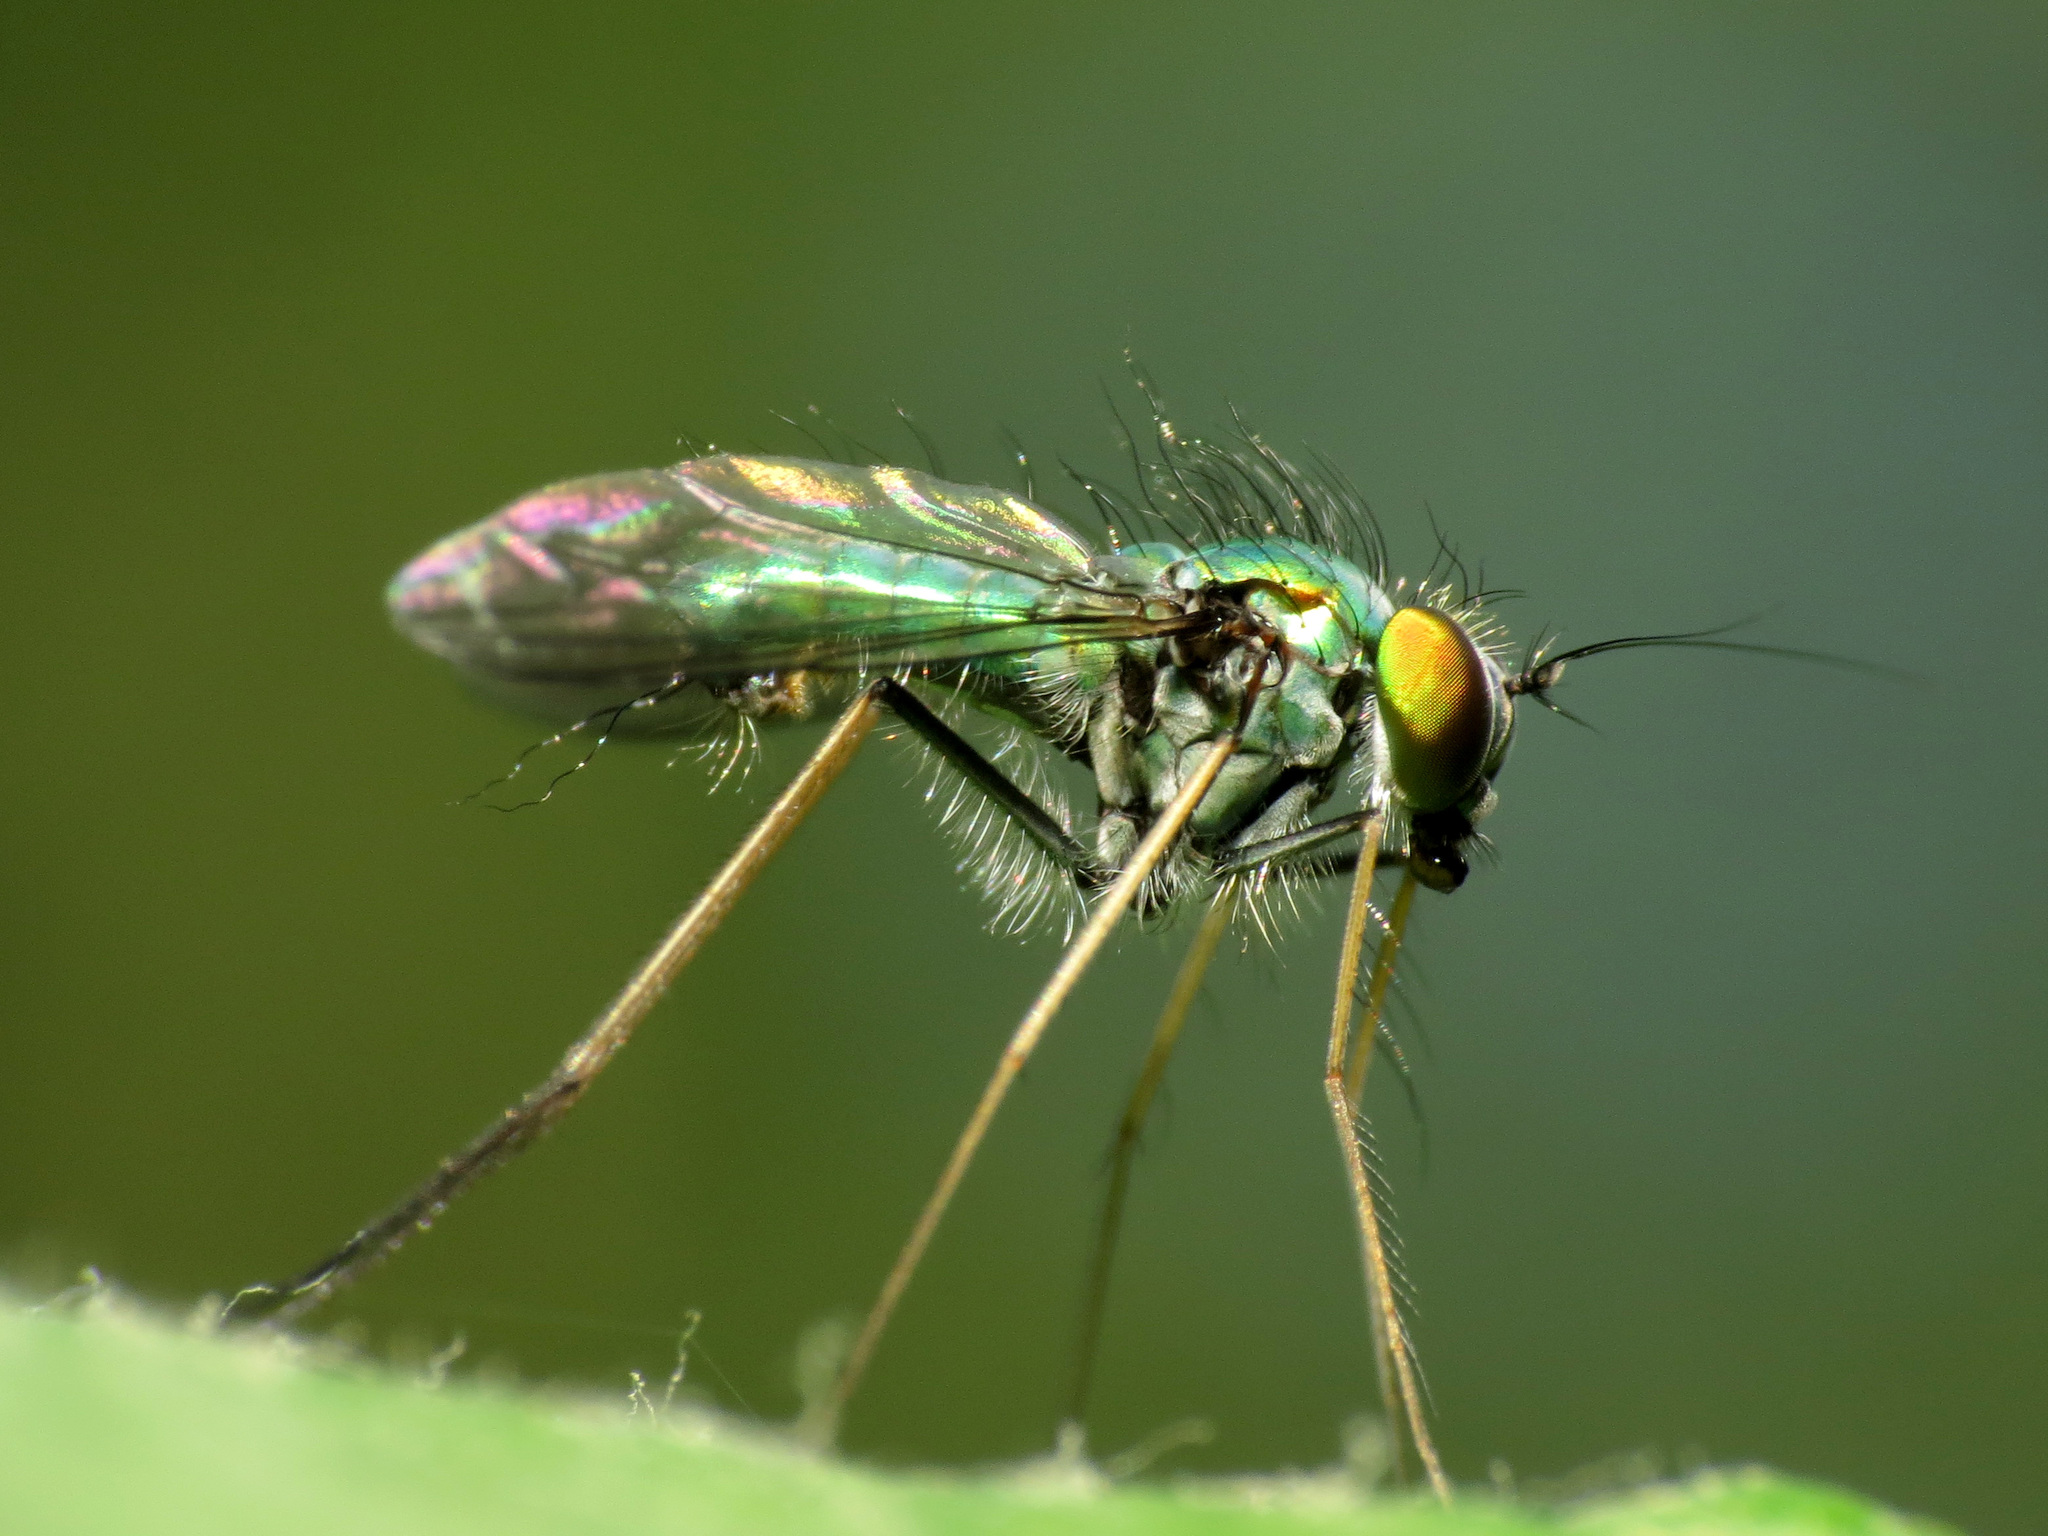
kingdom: Animalia
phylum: Arthropoda
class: Insecta
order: Diptera
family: Dolichopodidae
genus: Condylostylus
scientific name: Condylostylus comatus
